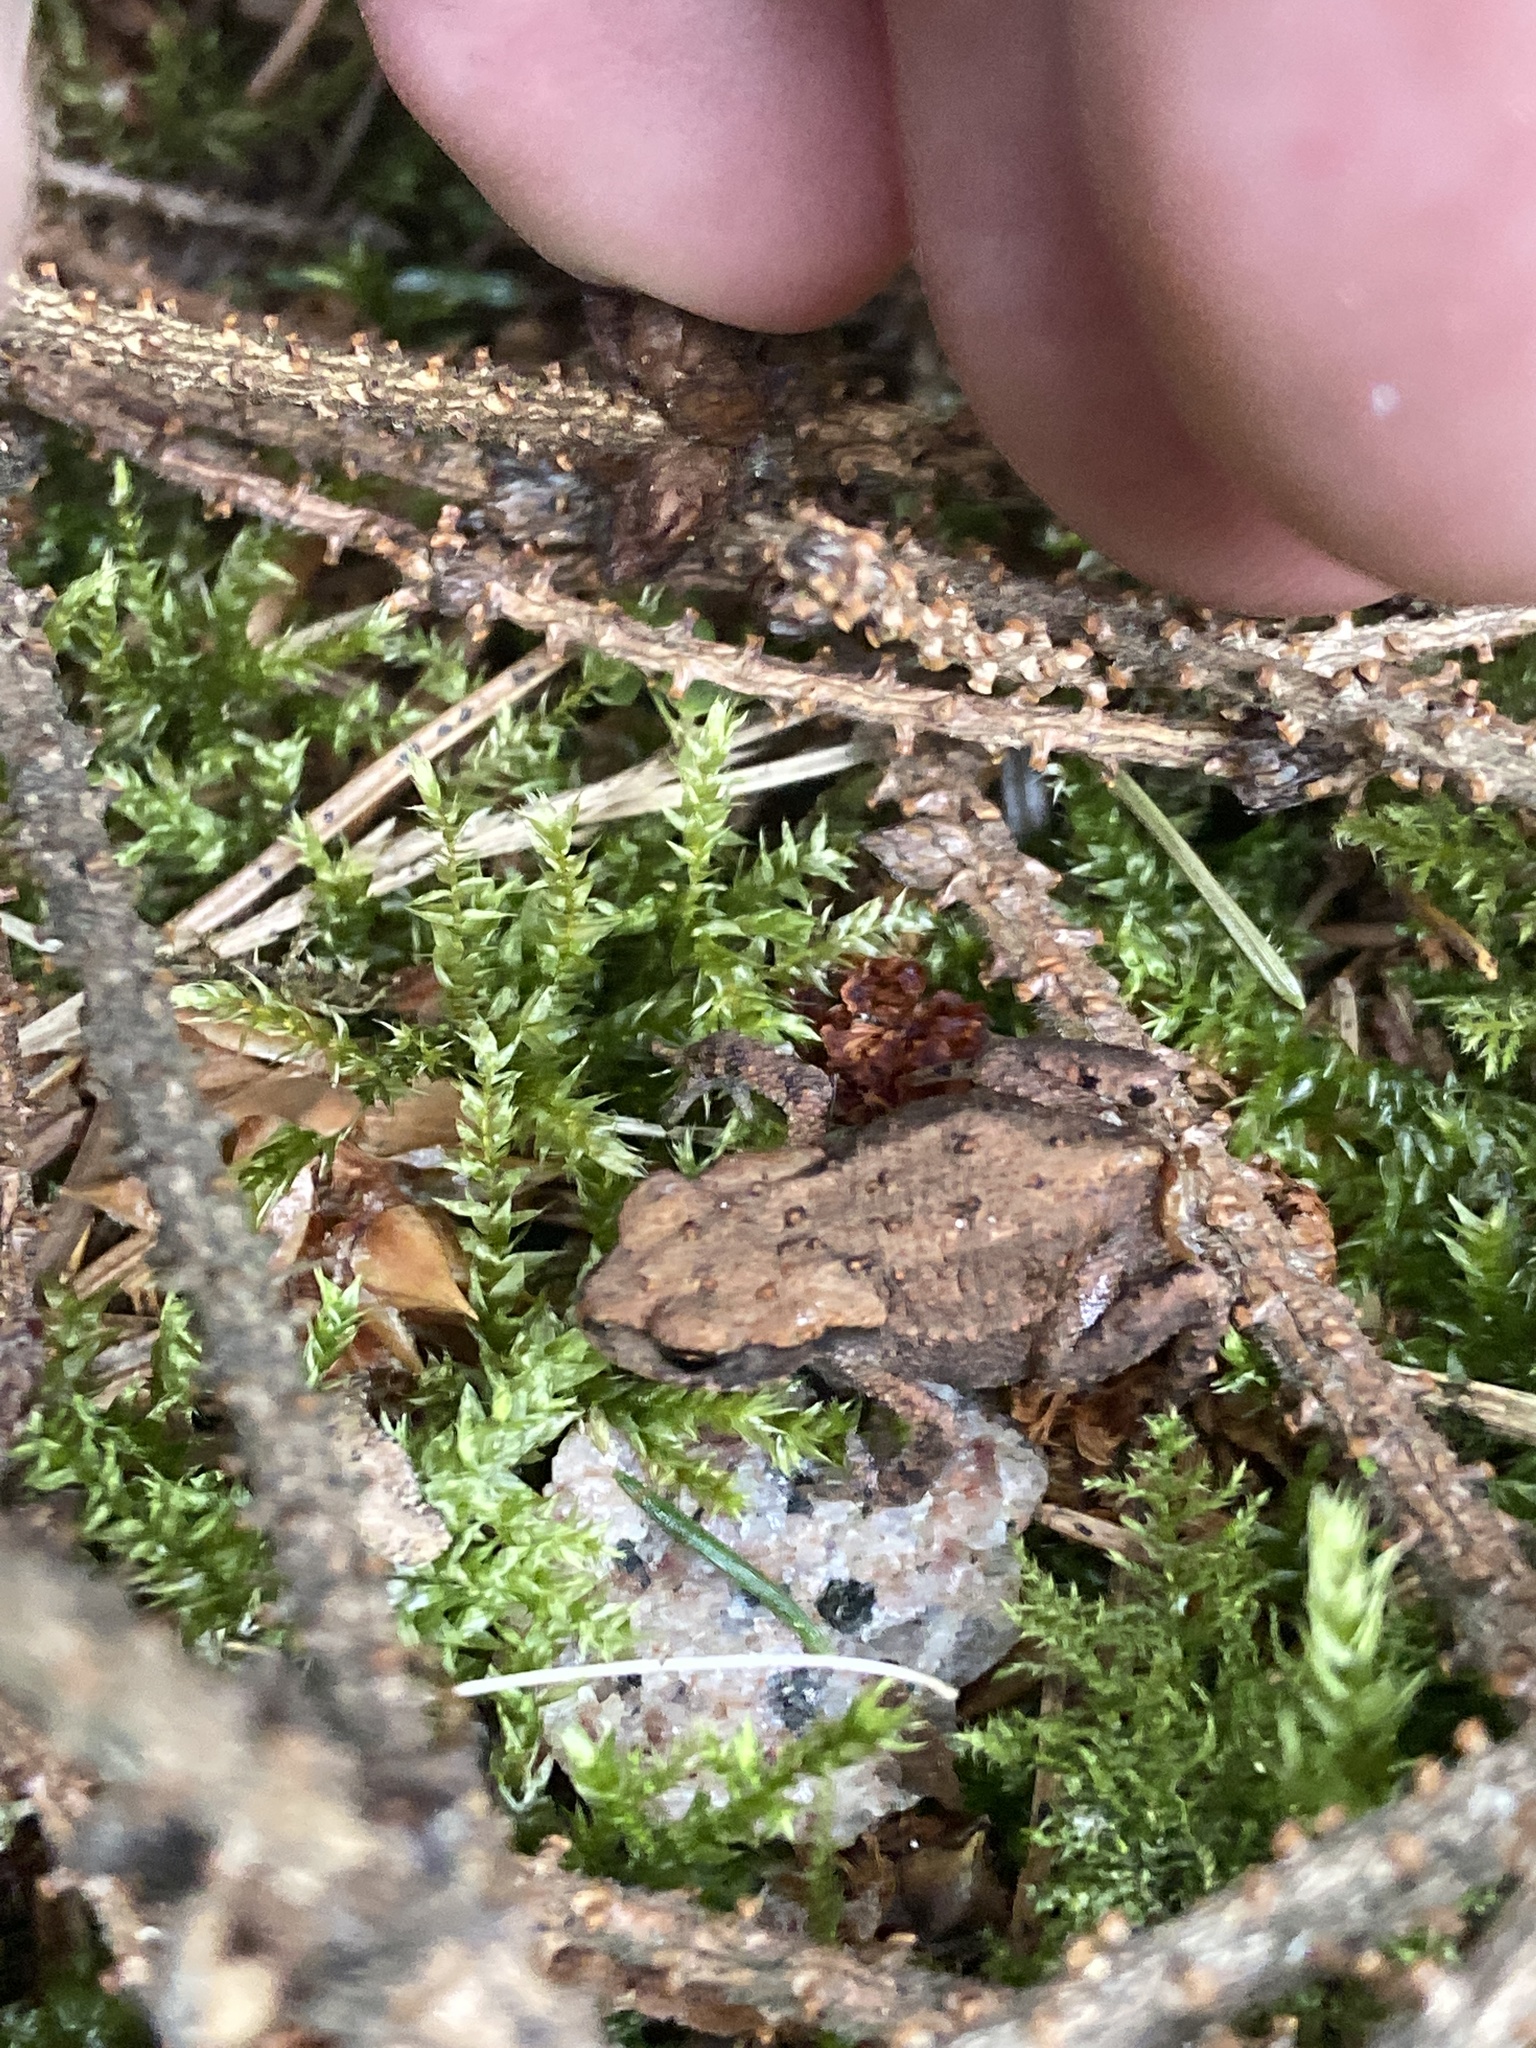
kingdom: Animalia
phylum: Chordata
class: Amphibia
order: Anura
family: Bufonidae
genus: Bufo
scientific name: Bufo bufo
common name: Common toad
